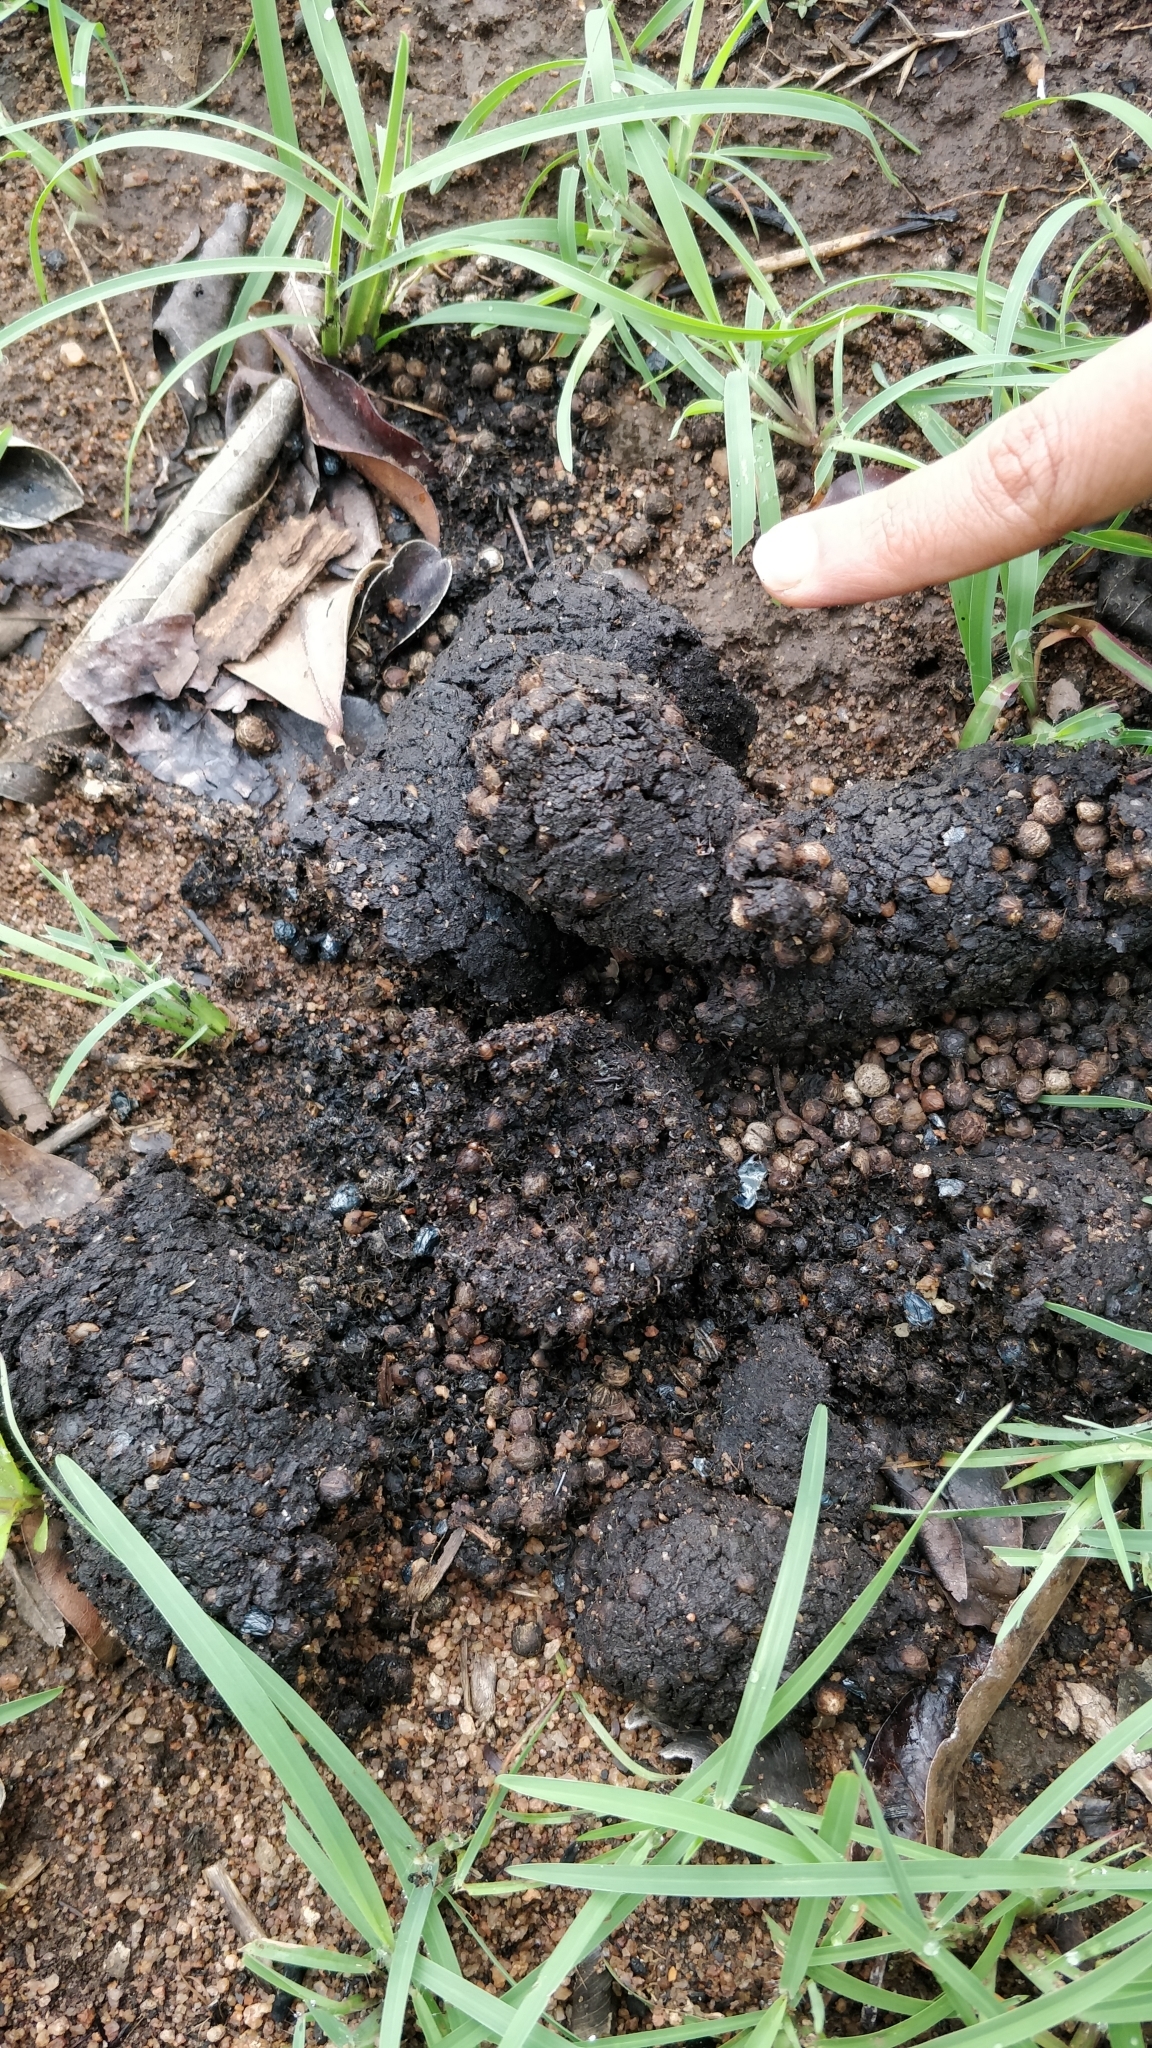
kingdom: Animalia
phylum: Chordata
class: Mammalia
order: Carnivora
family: Ursidae
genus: Melursus
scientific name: Melursus ursinus
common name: Sloth bear
